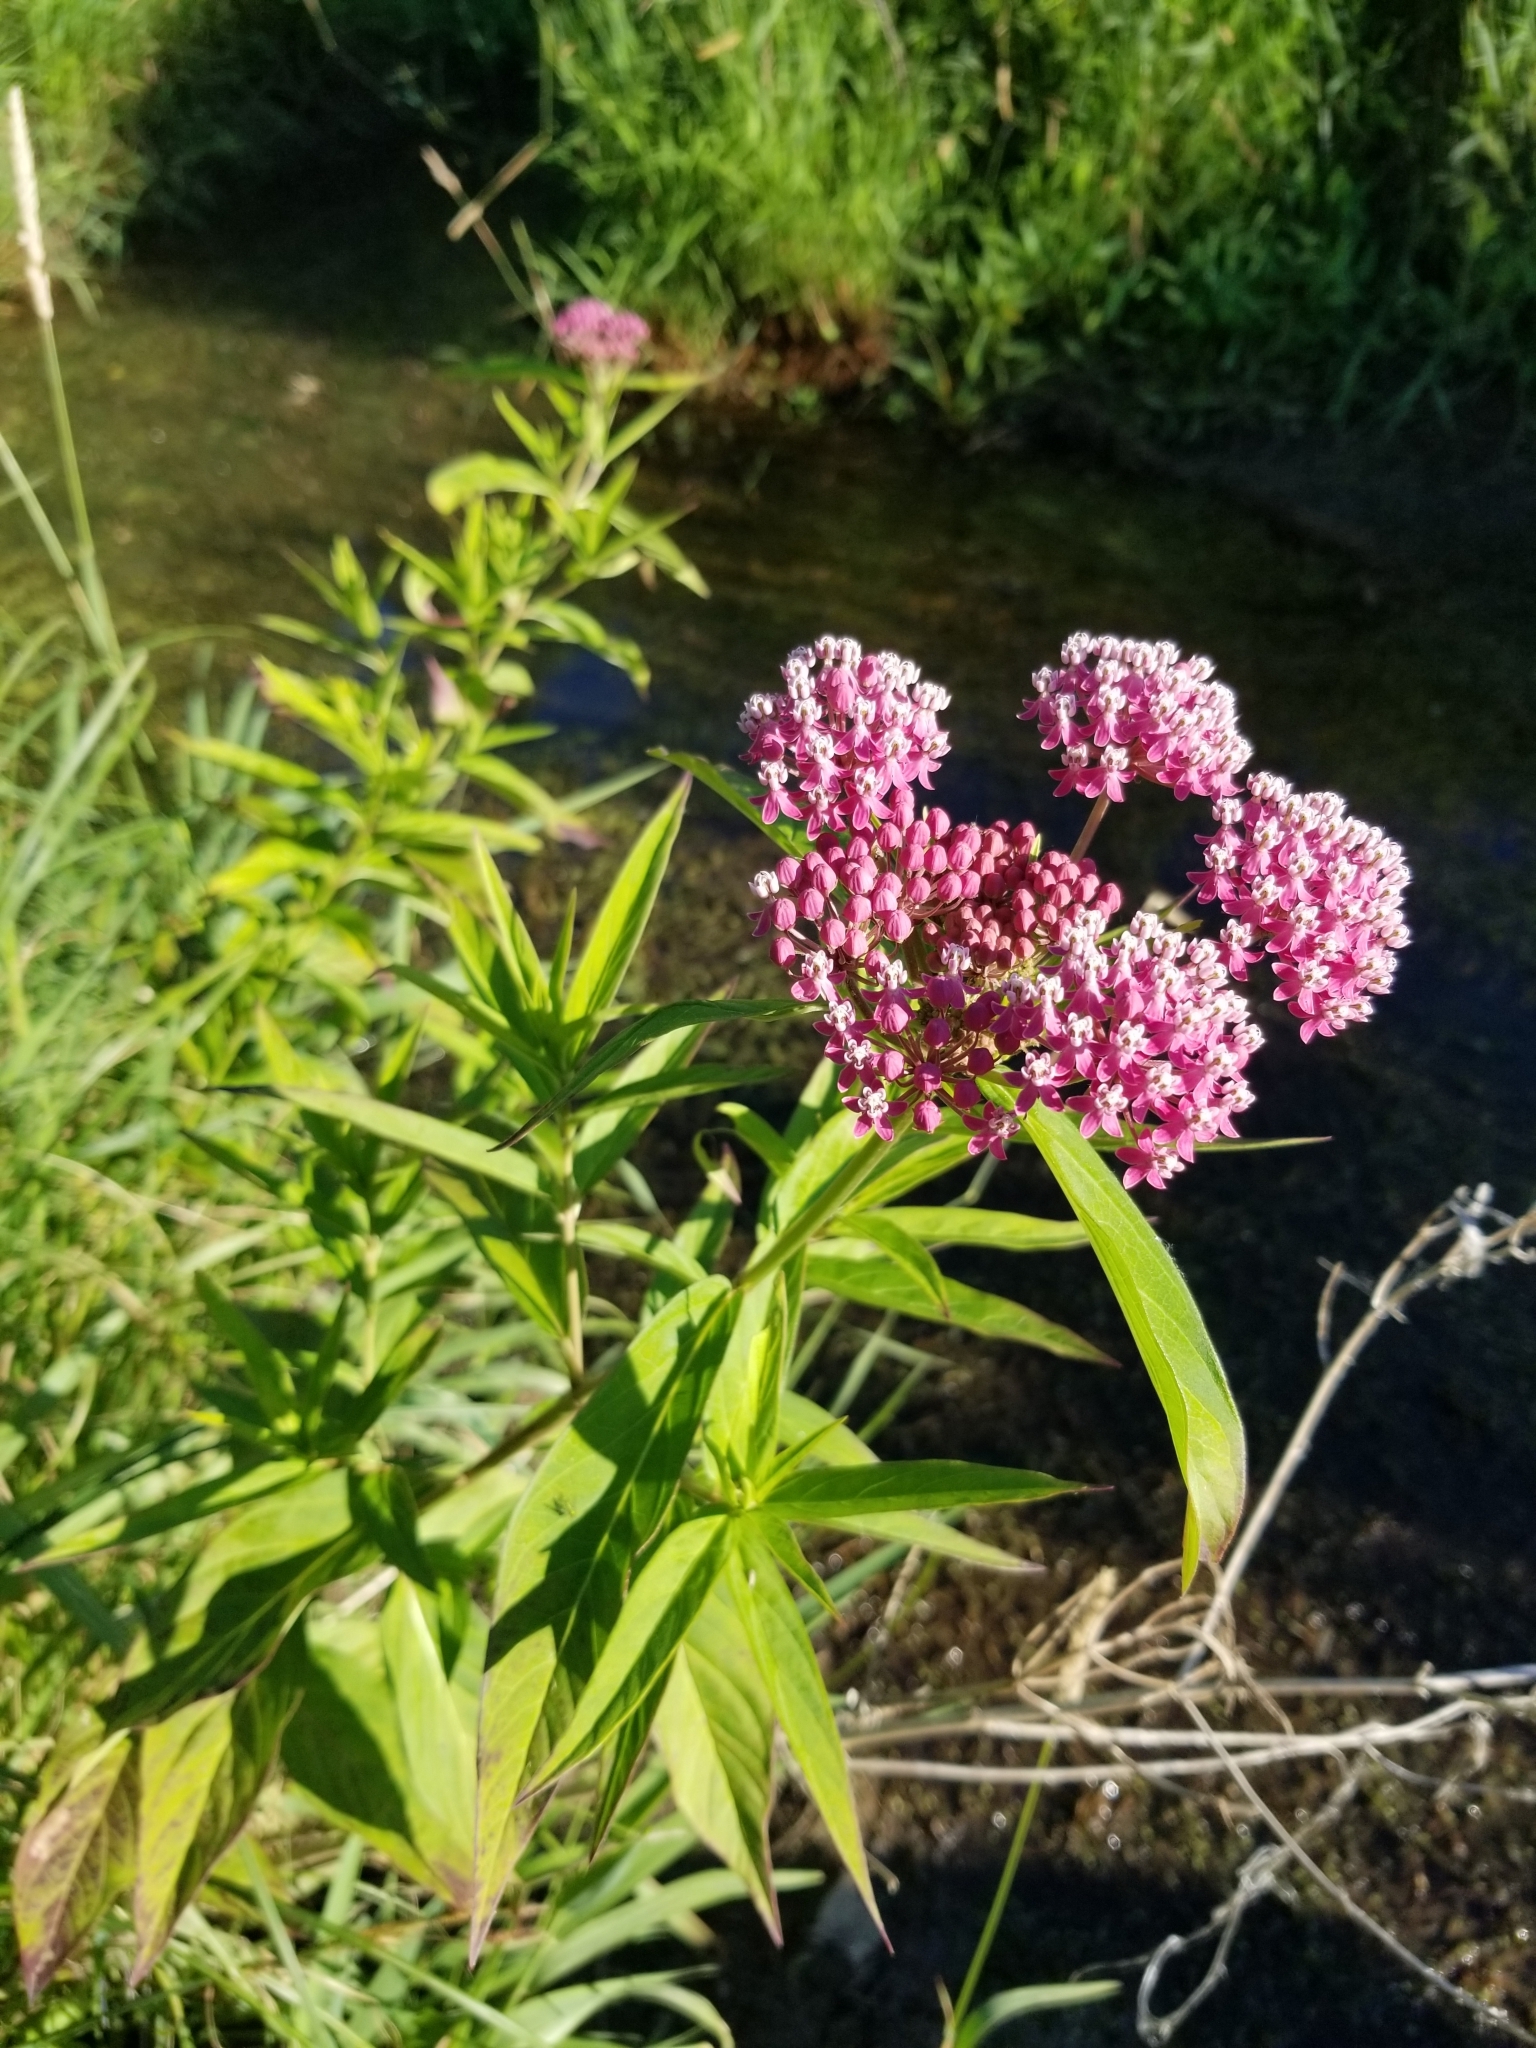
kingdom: Plantae
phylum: Tracheophyta
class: Magnoliopsida
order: Gentianales
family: Apocynaceae
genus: Asclepias
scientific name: Asclepias incarnata
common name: Swamp milkweed
